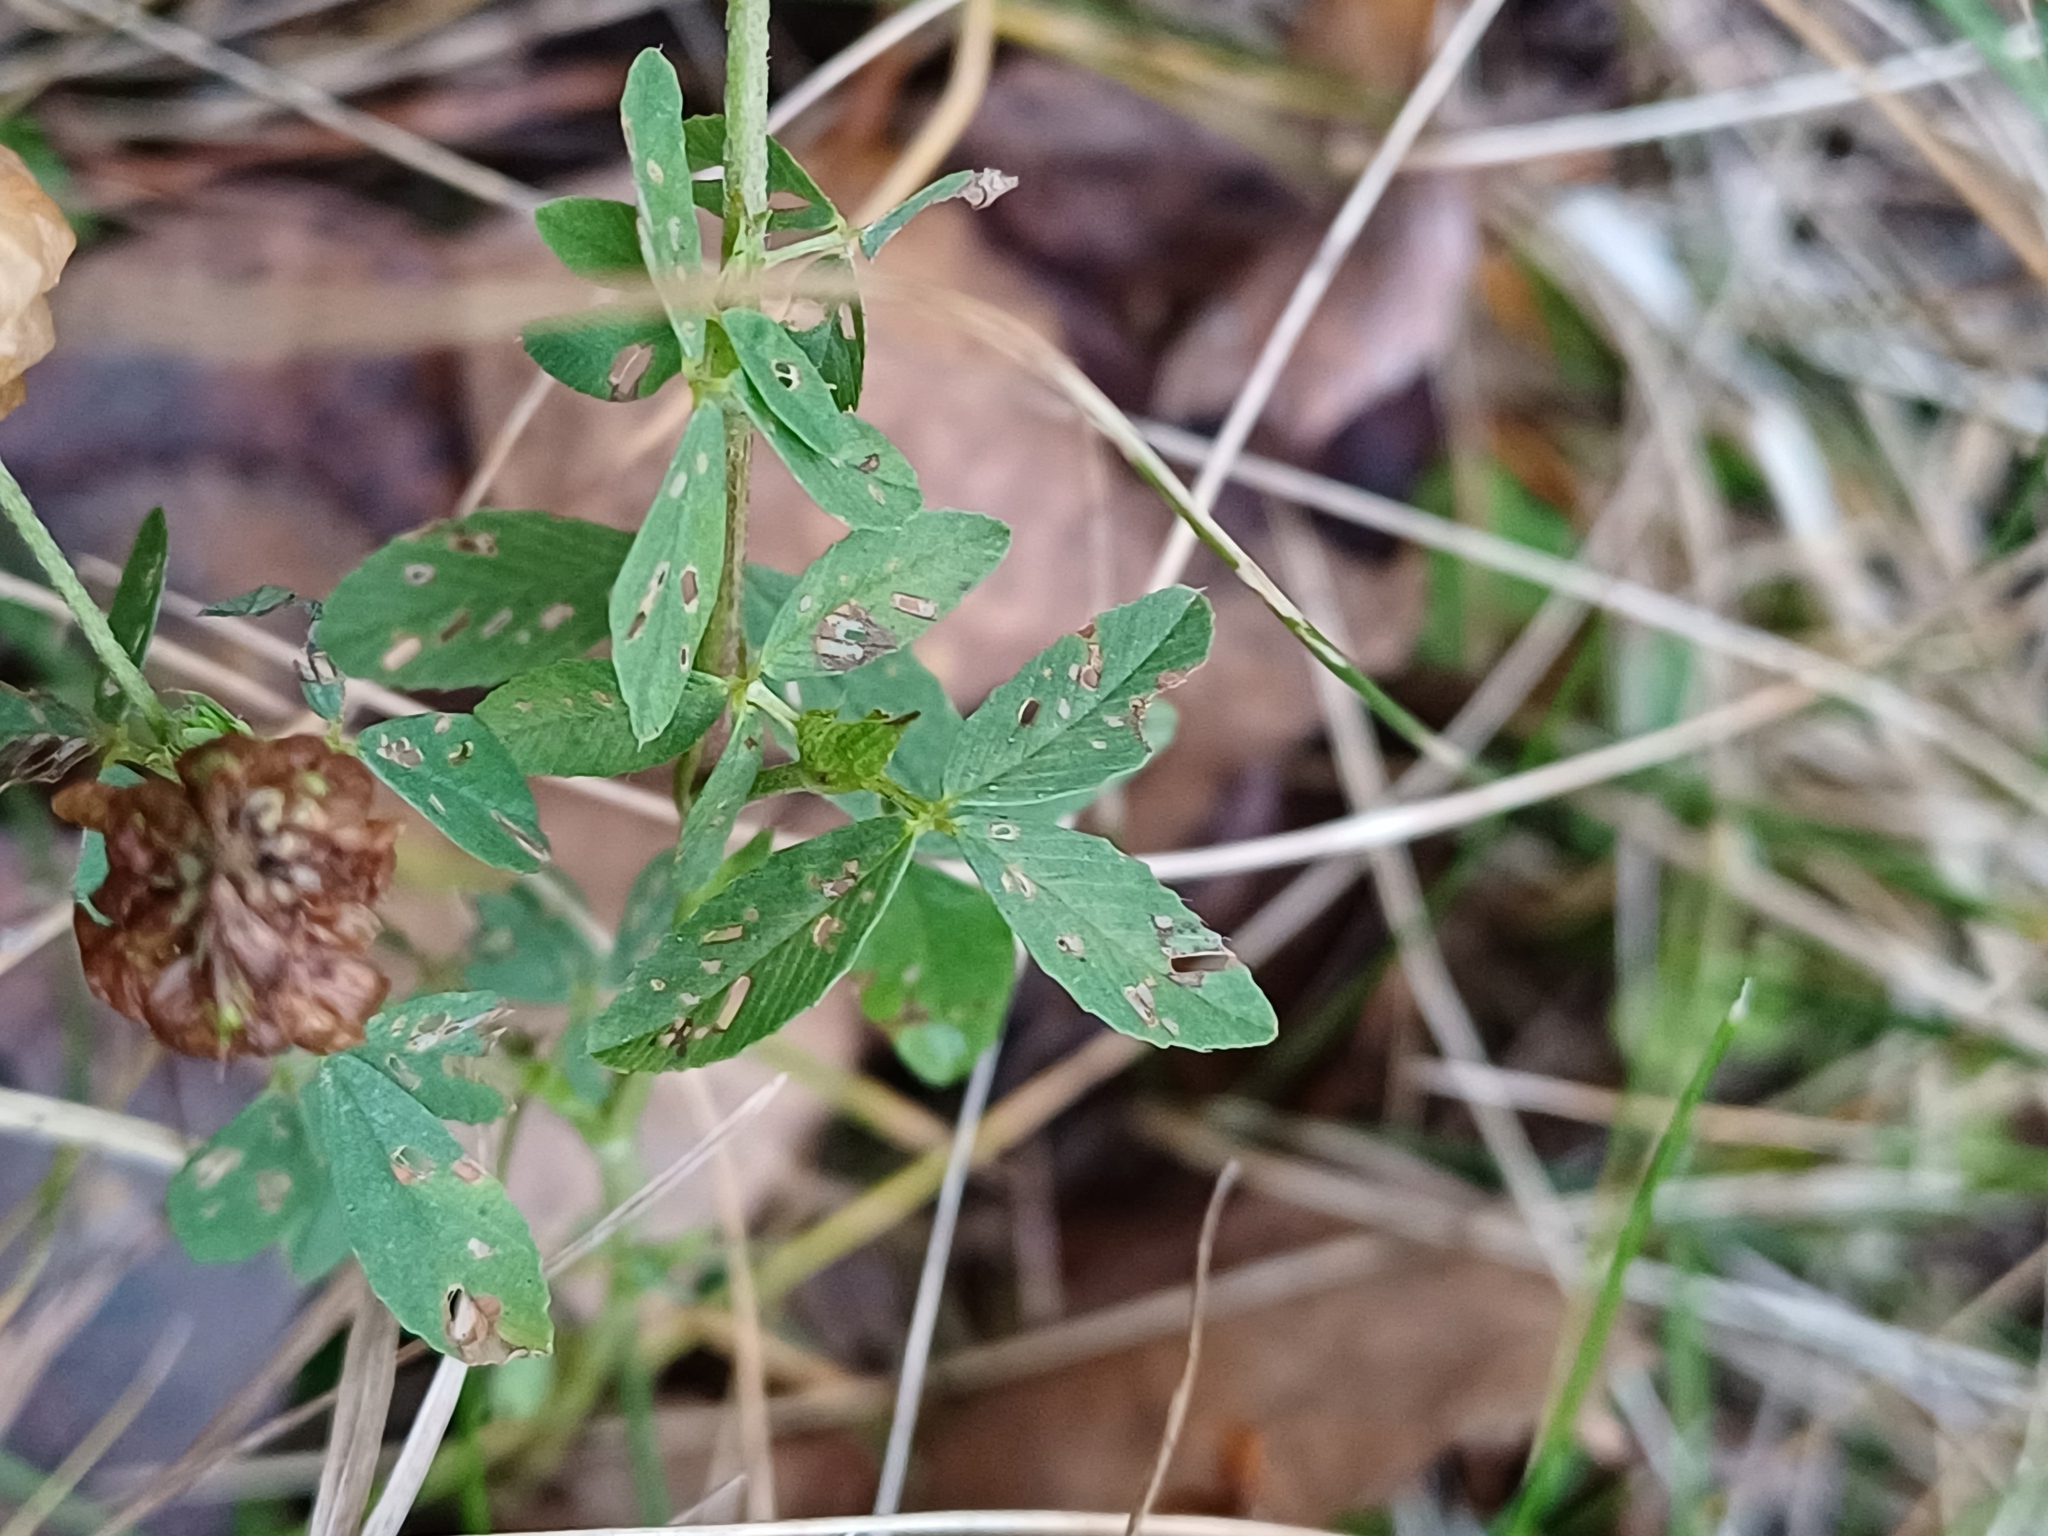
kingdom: Plantae
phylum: Tracheophyta
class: Magnoliopsida
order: Fabales
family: Fabaceae
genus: Trifolium
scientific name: Trifolium aureum
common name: Golden clover
